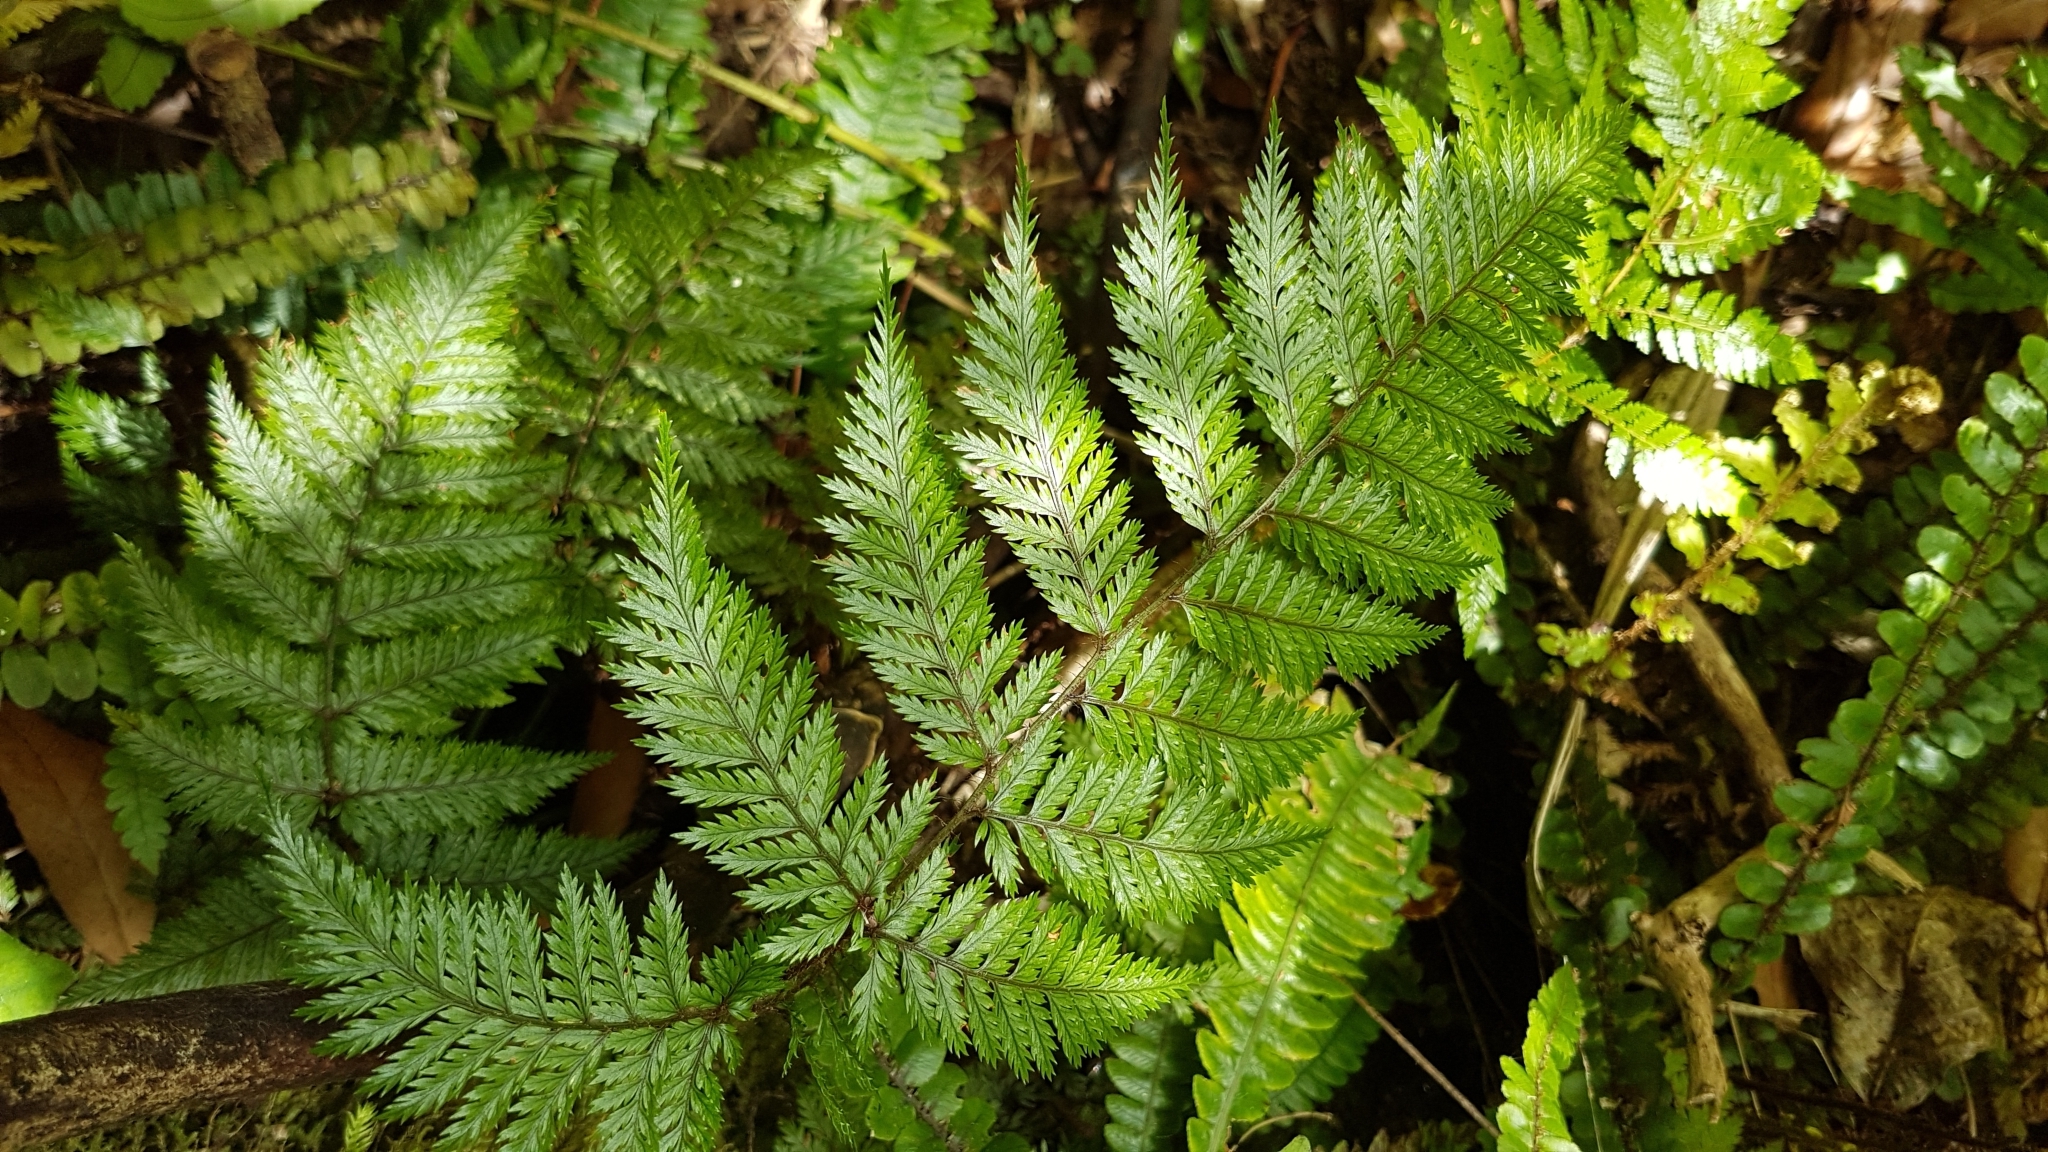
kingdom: Plantae
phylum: Tracheophyta
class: Polypodiopsida
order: Polypodiales
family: Dryopteridaceae
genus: Lastreopsis
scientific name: Lastreopsis hispida
